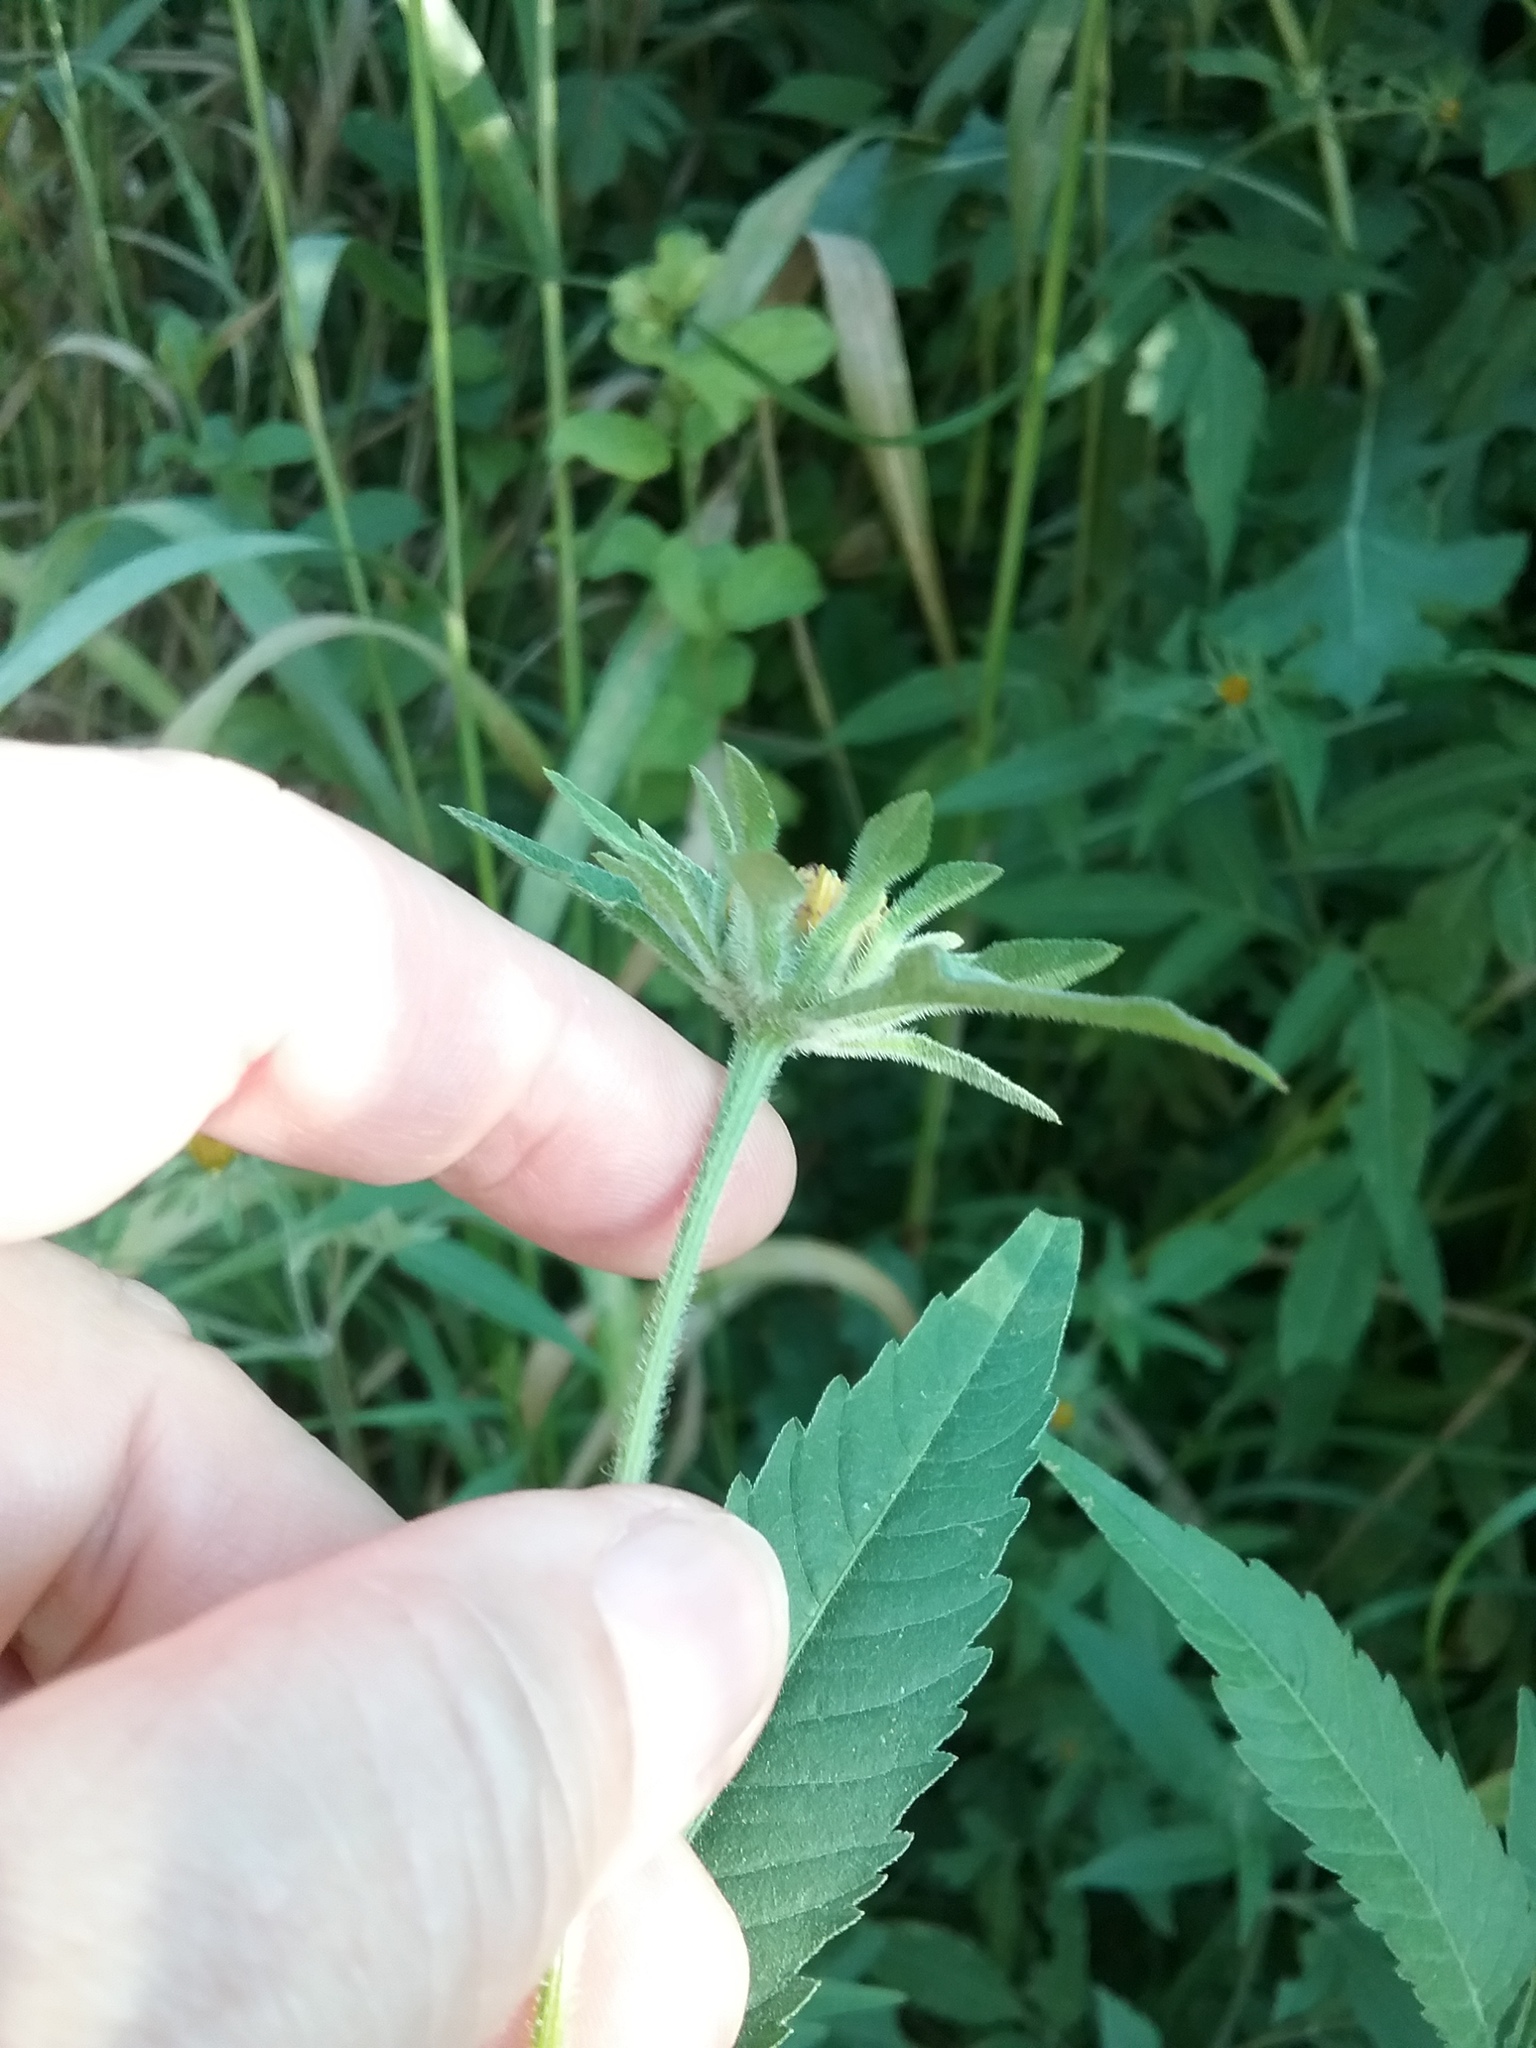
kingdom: Plantae
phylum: Tracheophyta
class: Magnoliopsida
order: Asterales
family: Asteraceae
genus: Bidens
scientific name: Bidens vulgata
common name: Tall beggarticks
